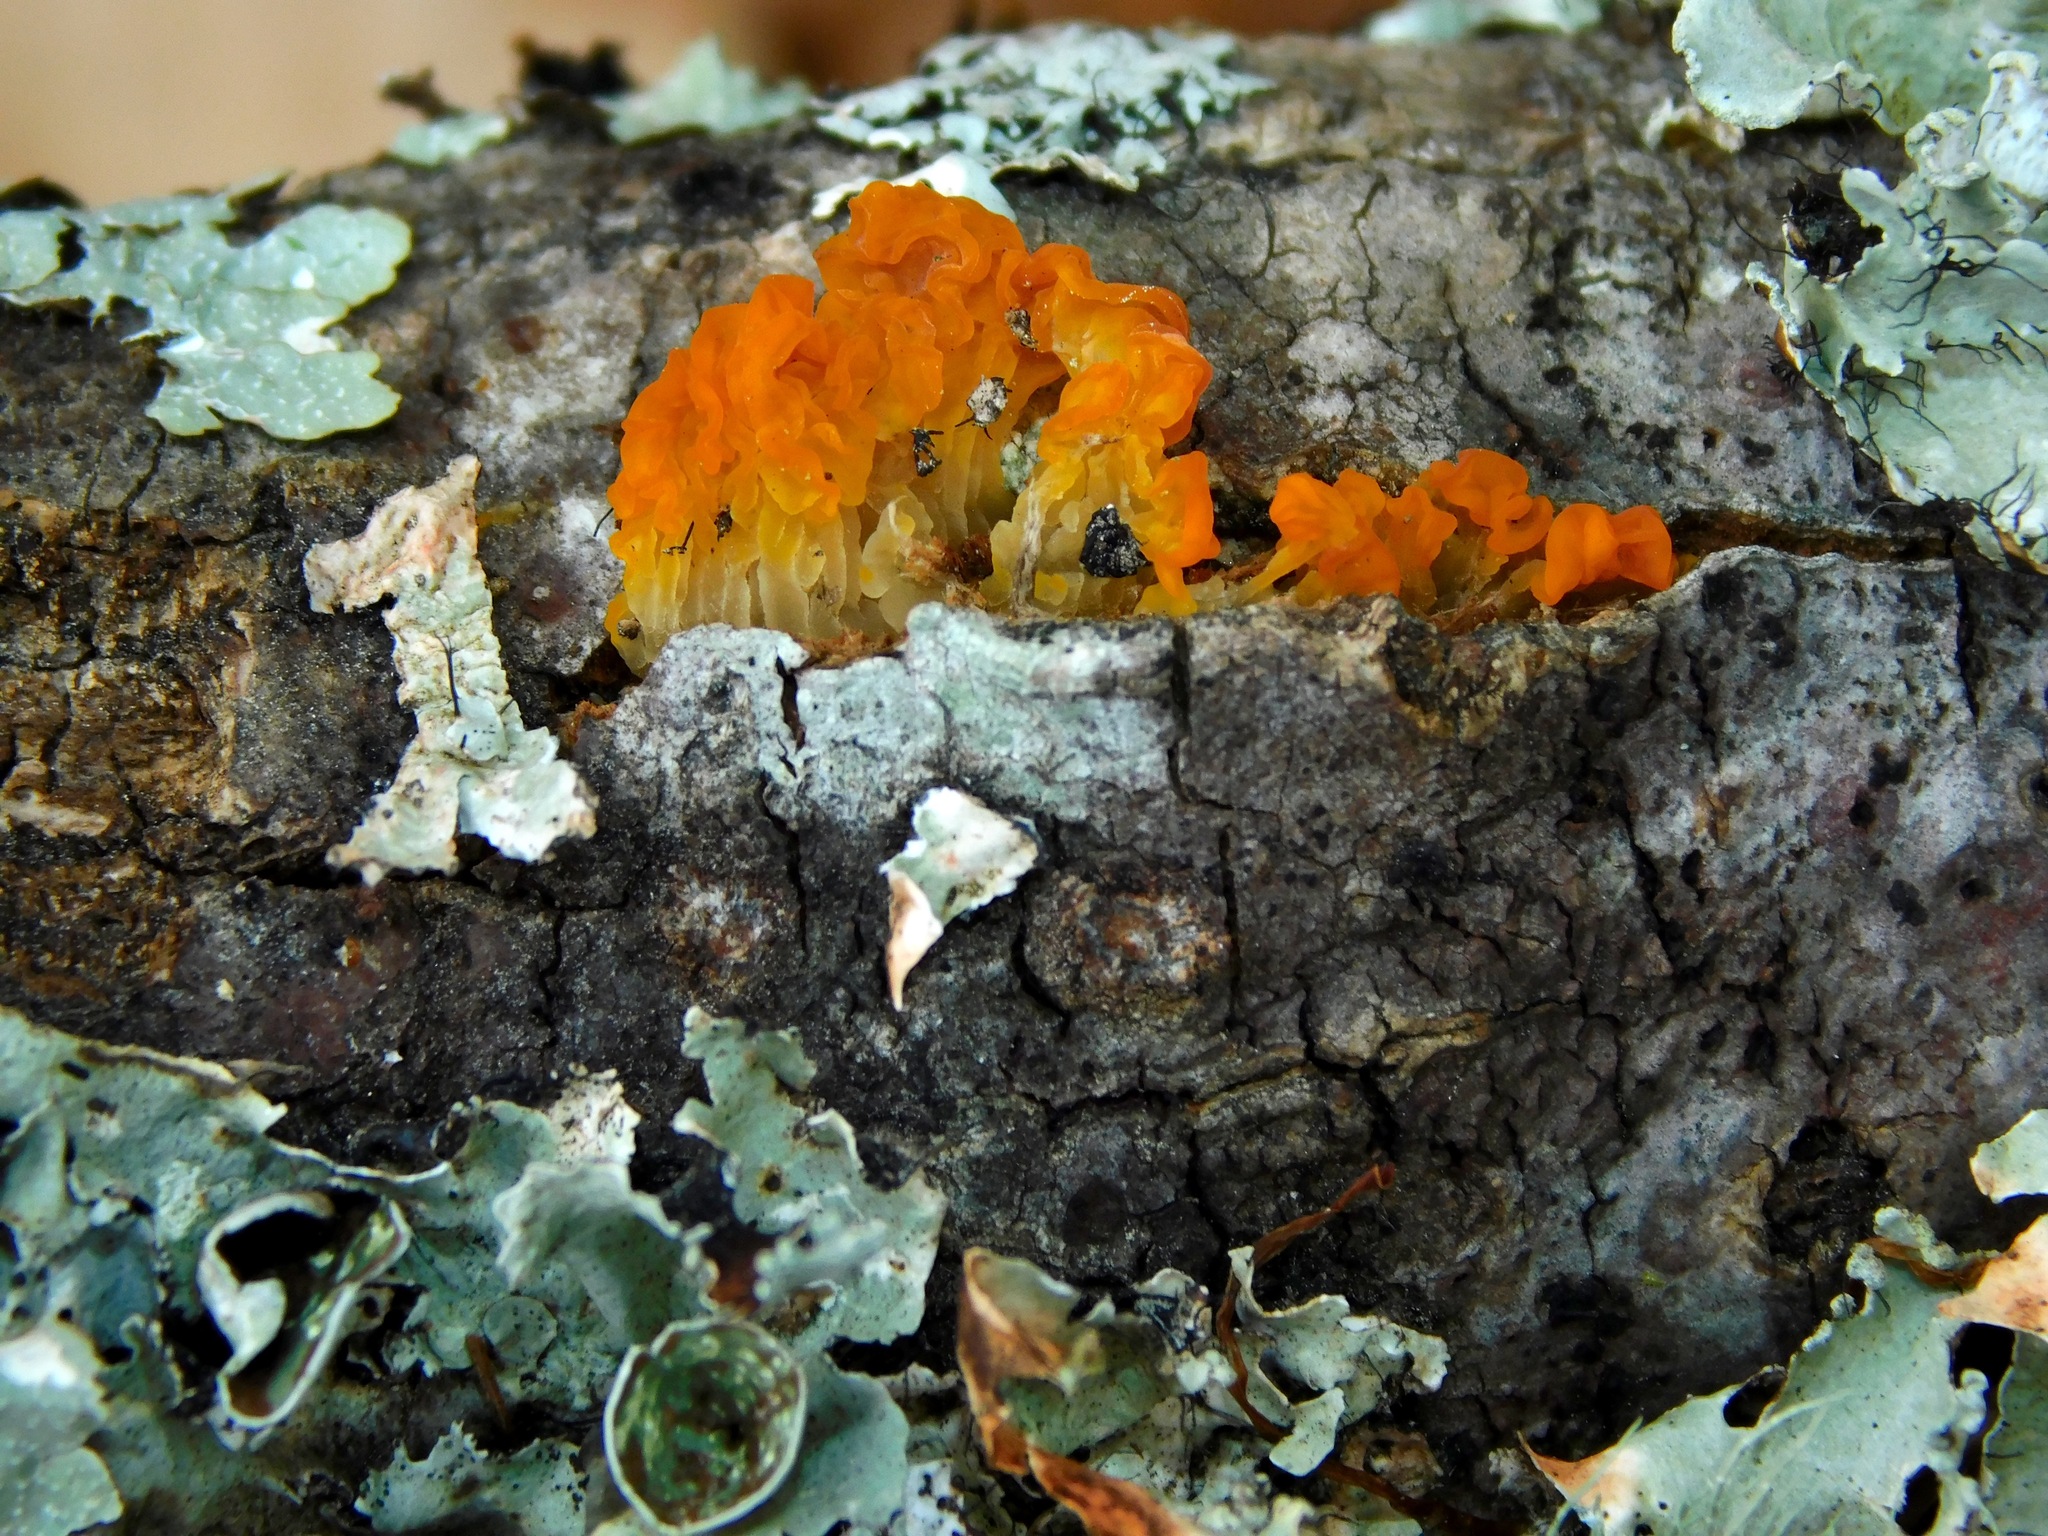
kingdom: Fungi
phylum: Basidiomycota
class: Tremellomycetes
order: Tremellales
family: Tremellaceae
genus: Tremella
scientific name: Tremella mesenterica
